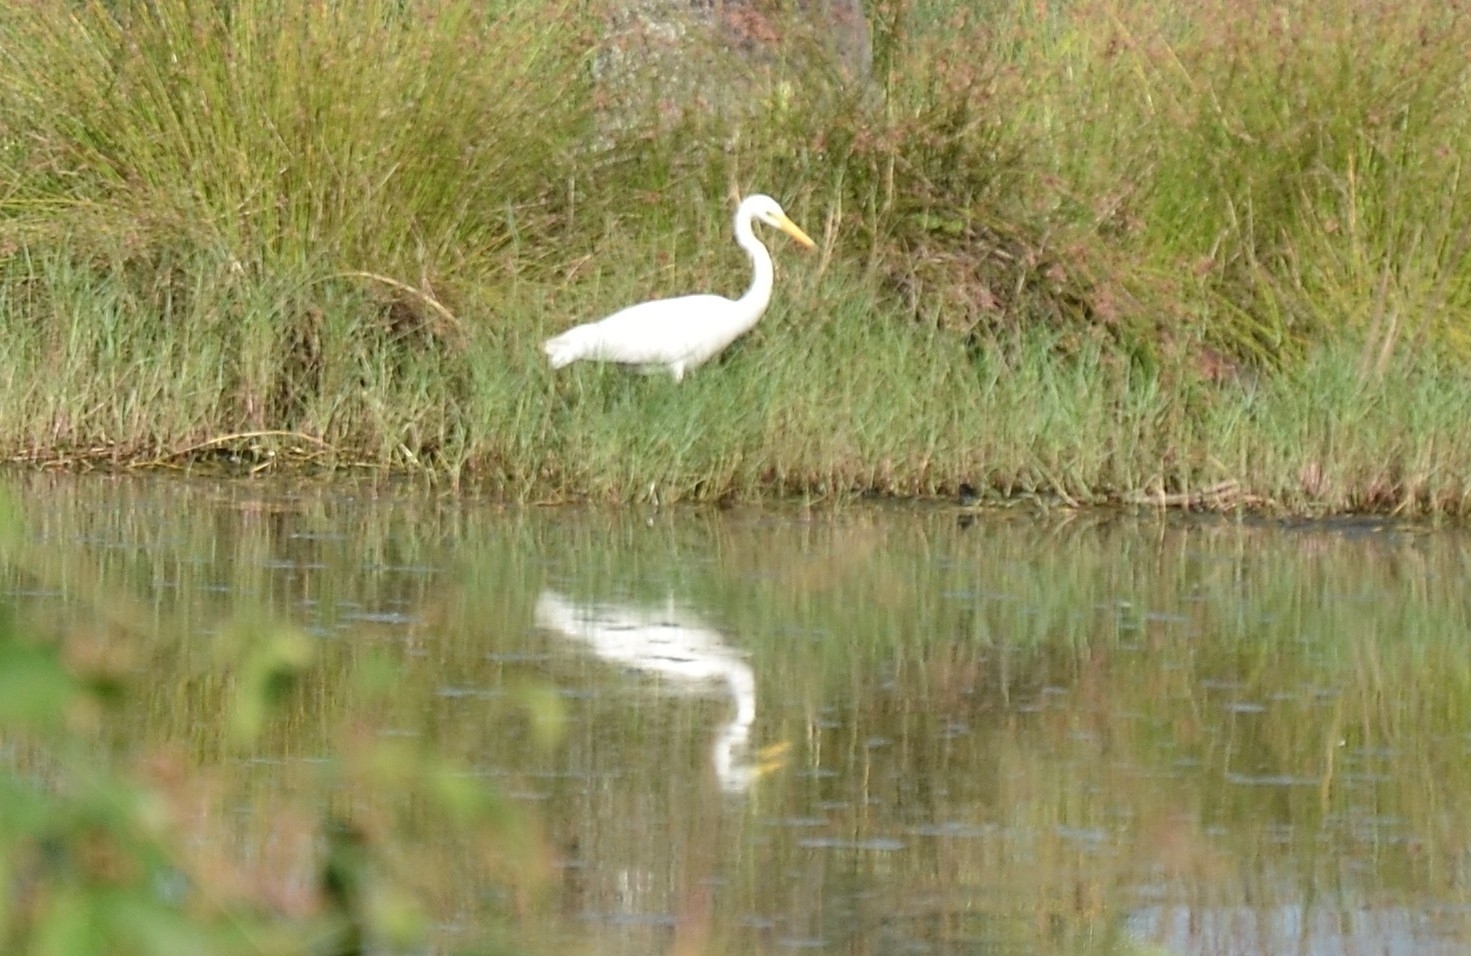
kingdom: Animalia
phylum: Chordata
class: Aves
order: Pelecaniformes
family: Ardeidae
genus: Egretta
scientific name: Egretta intermedia
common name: Intermediate egret
